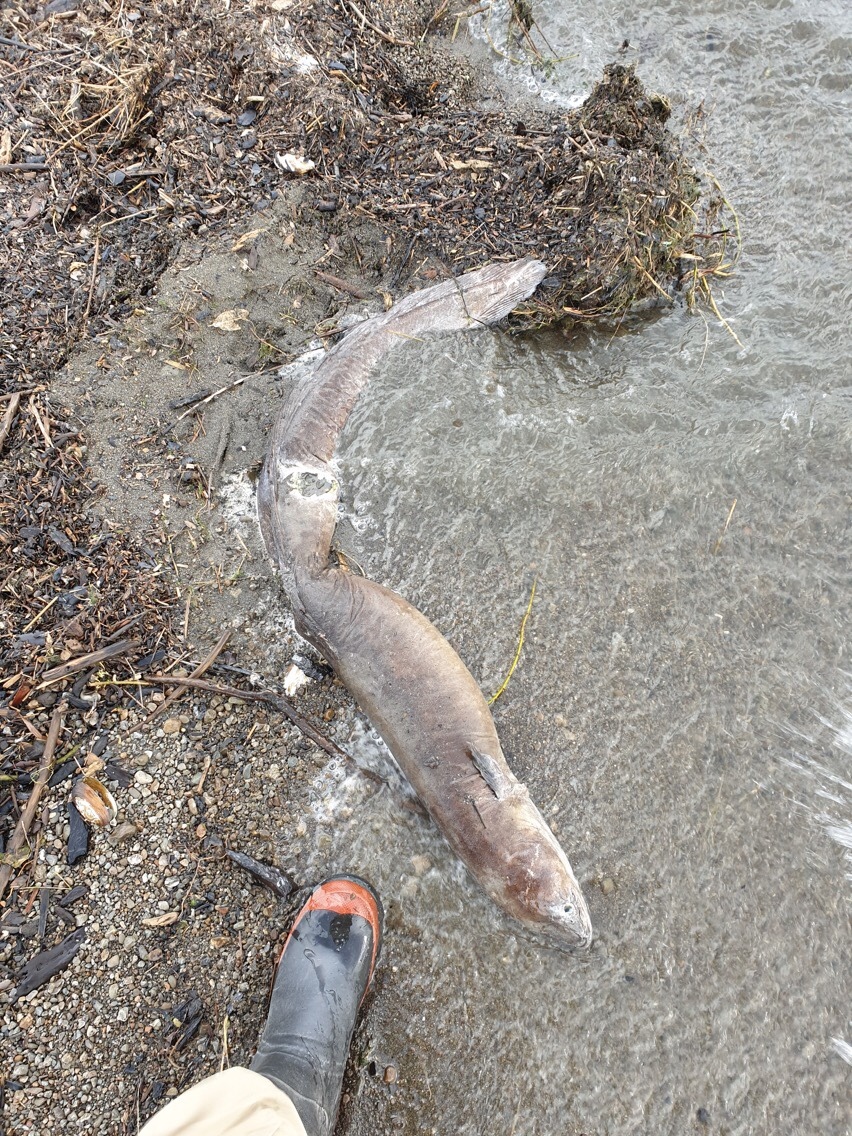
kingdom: Animalia
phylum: Chordata
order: Anguilliformes
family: Anguillidae
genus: Anguilla
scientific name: Anguilla dieffenbachii
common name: New zealand longfin eel
